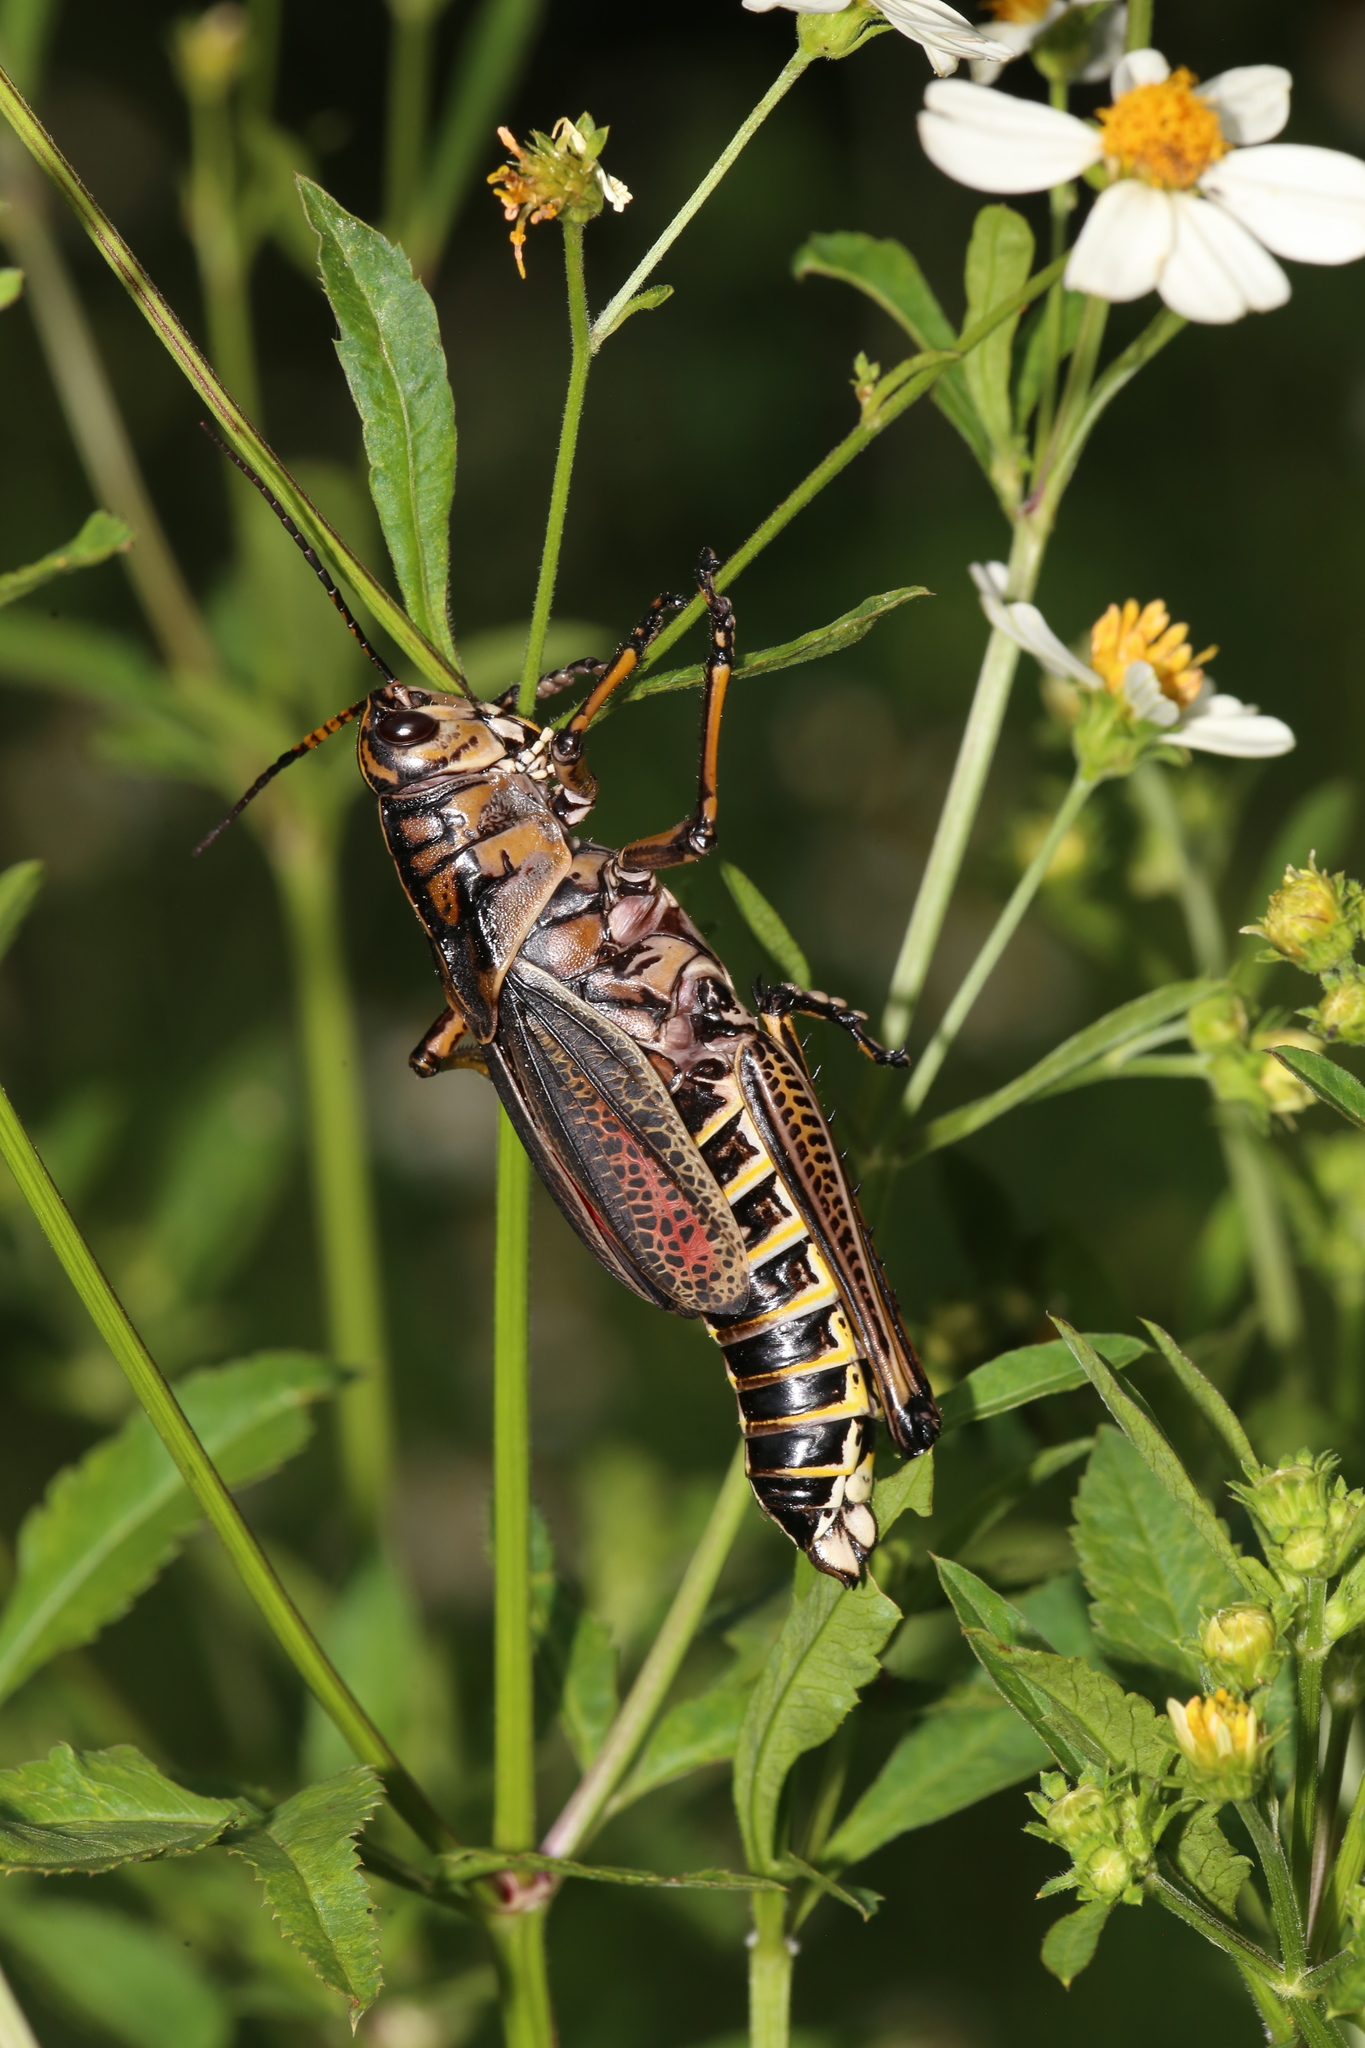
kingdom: Animalia
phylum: Arthropoda
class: Insecta
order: Orthoptera
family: Romaleidae
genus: Romalea
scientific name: Romalea microptera
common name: Eastern lubber grasshopper
